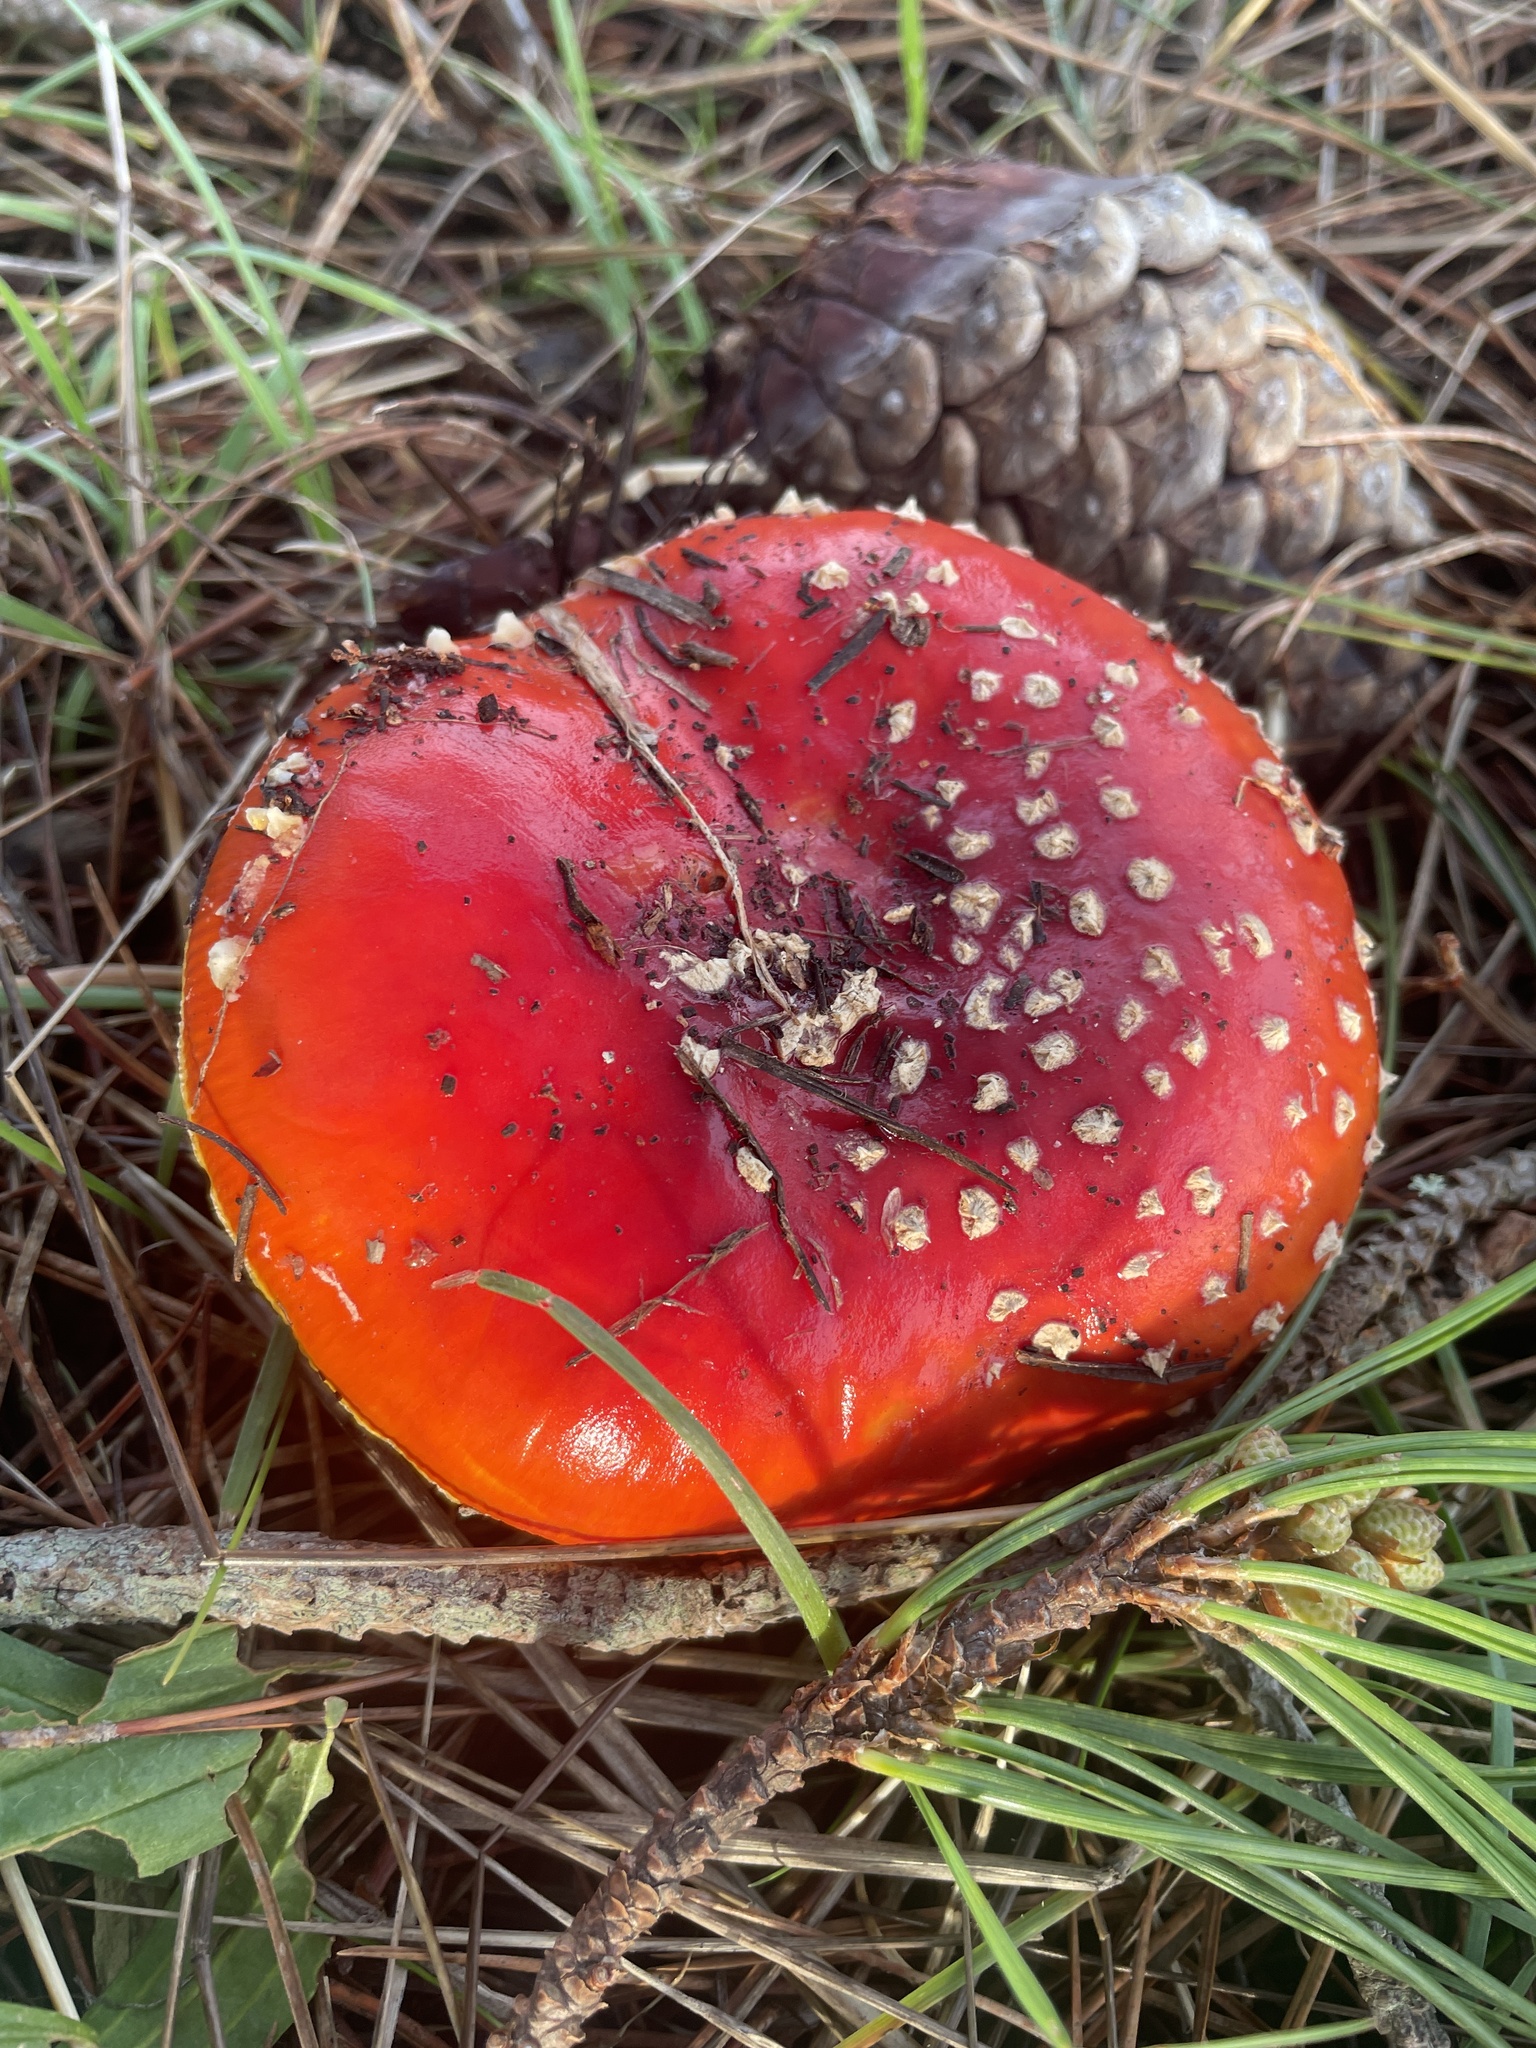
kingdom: Fungi
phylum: Basidiomycota
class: Agaricomycetes
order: Agaricales
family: Amanitaceae
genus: Amanita
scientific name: Amanita muscaria
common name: Fly agaric
